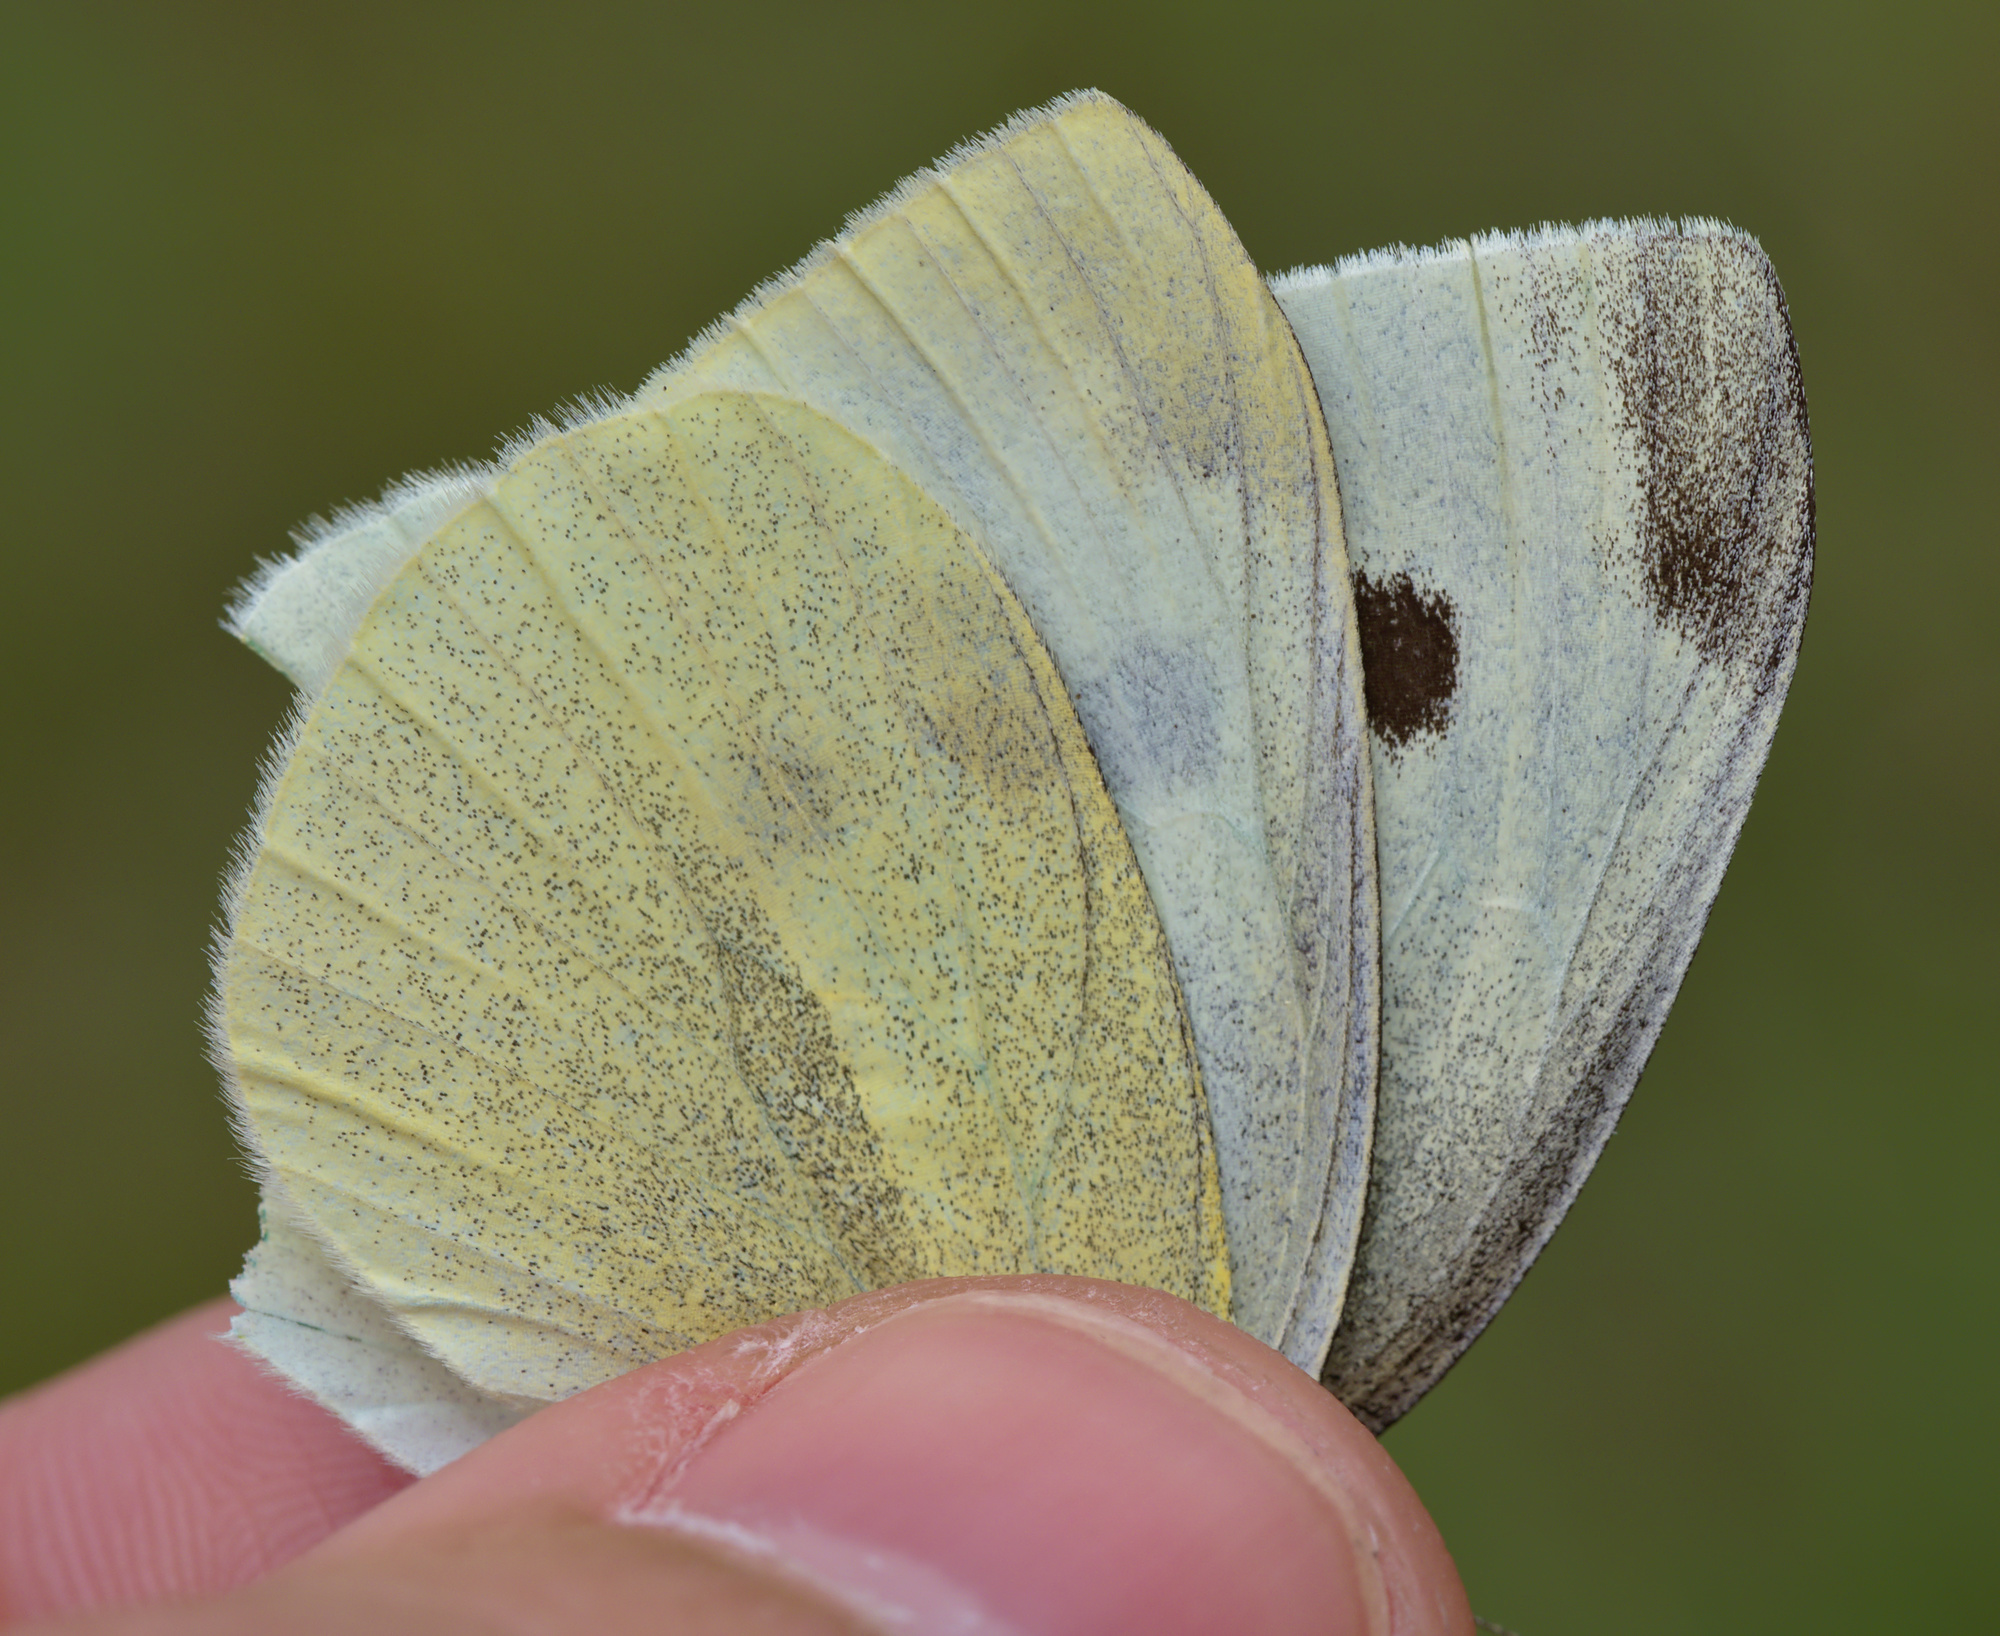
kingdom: Animalia
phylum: Arthropoda
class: Insecta
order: Lepidoptera
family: Pieridae
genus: Pieris
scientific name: Pieris rapae
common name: Small white
